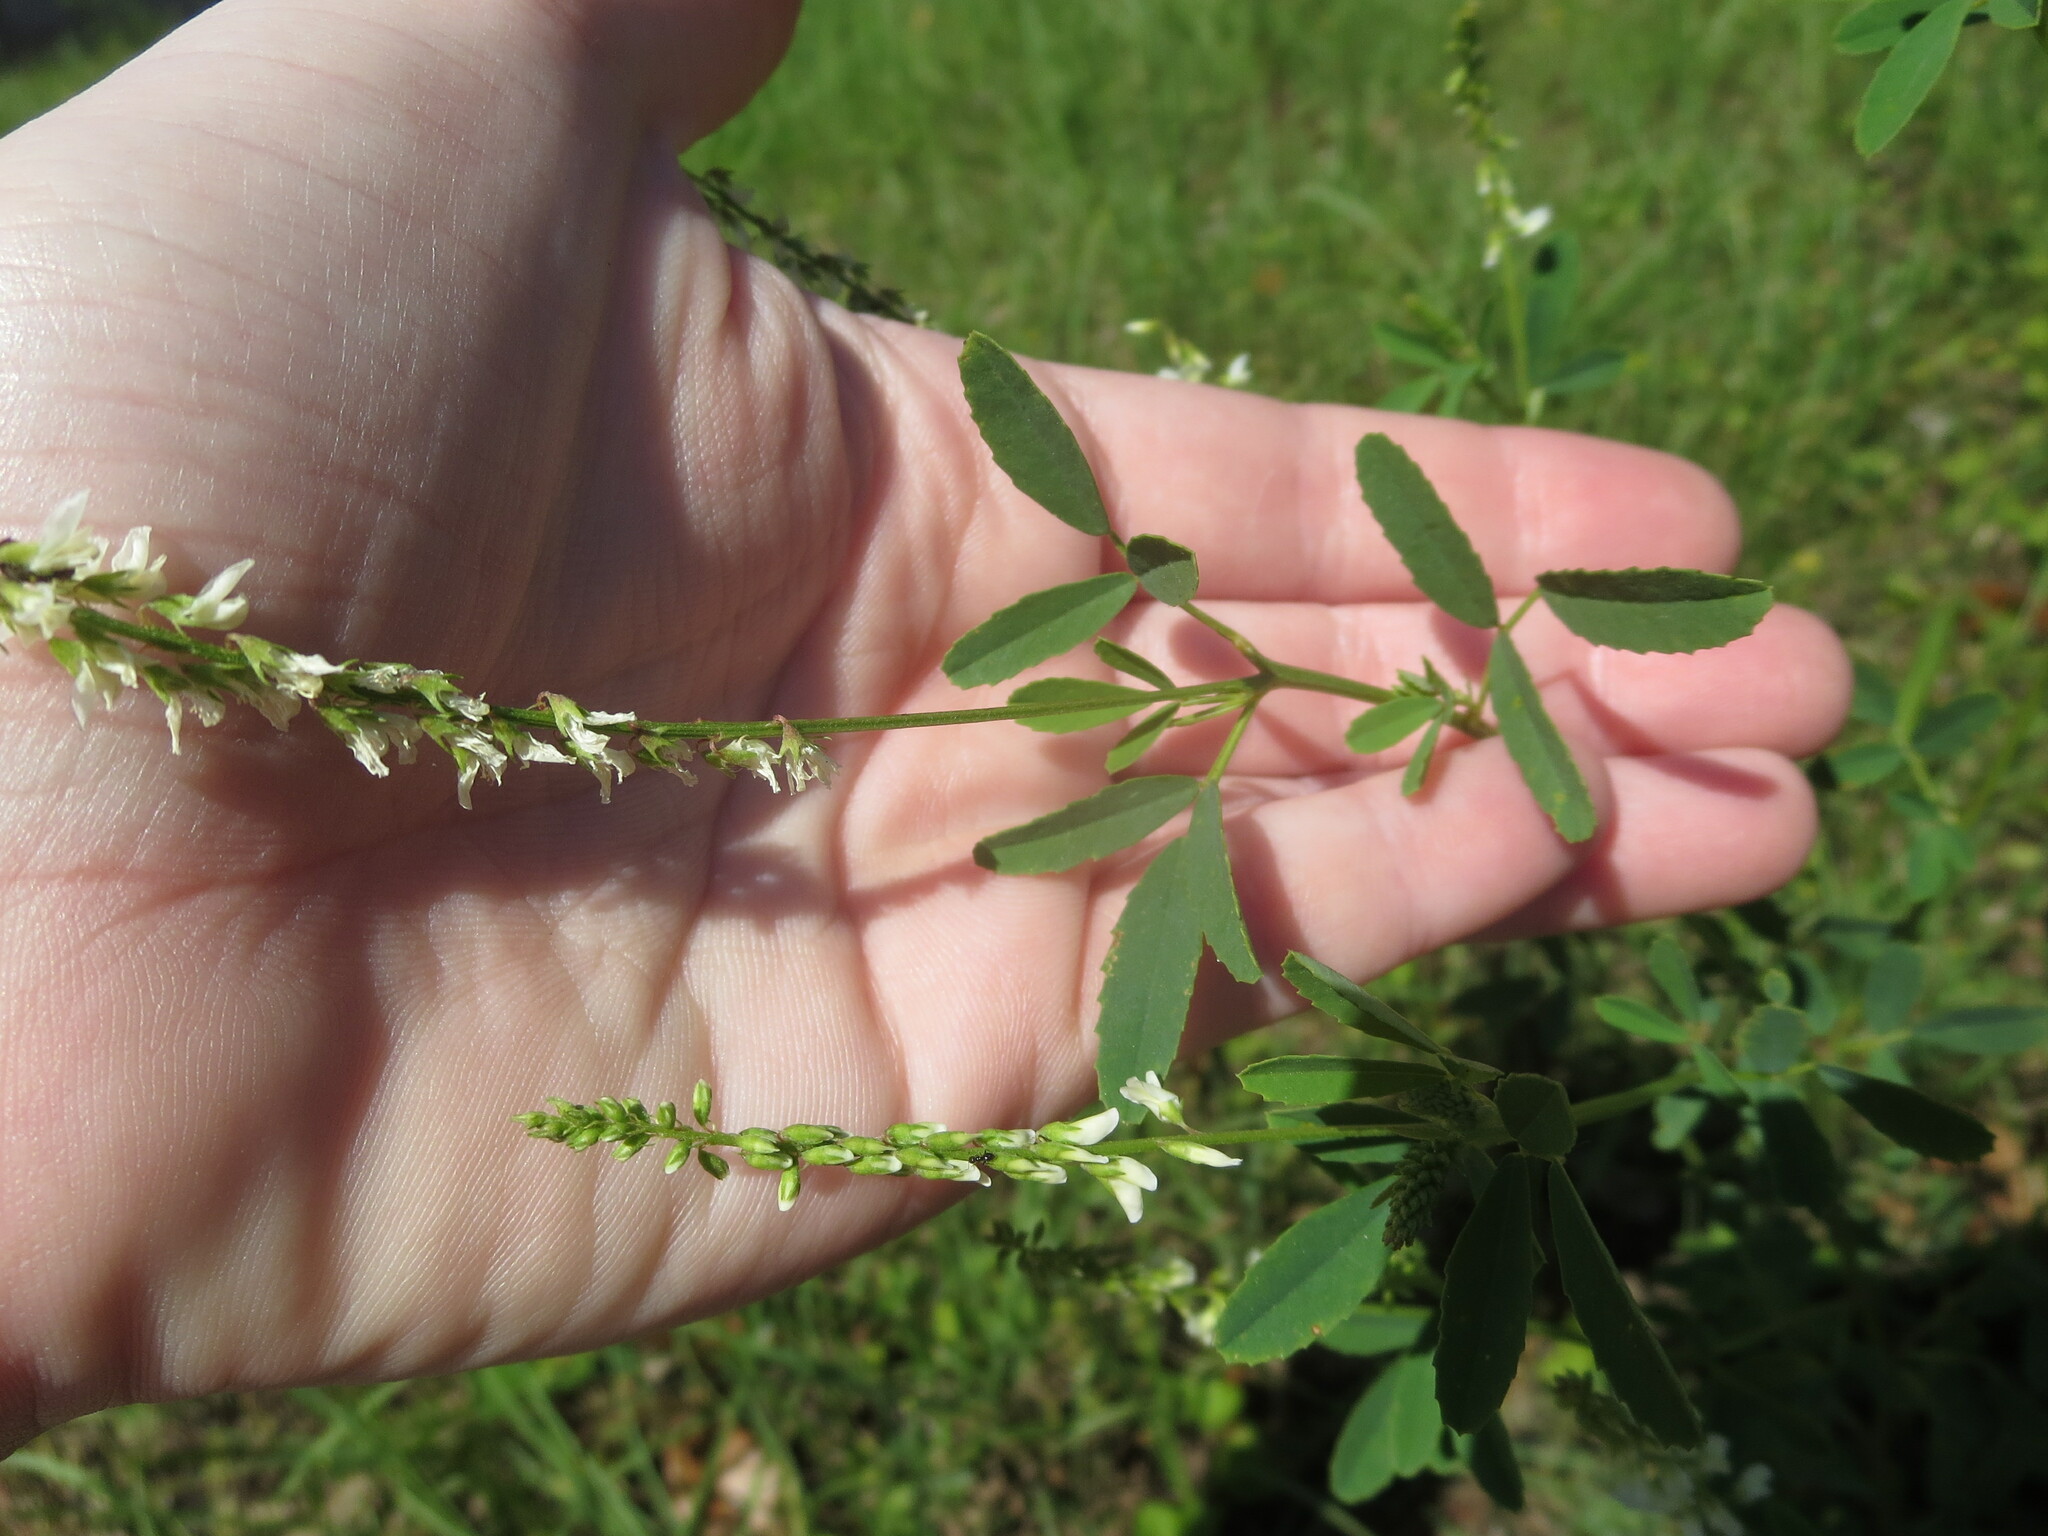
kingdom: Plantae
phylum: Tracheophyta
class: Magnoliopsida
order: Fabales
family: Fabaceae
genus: Melilotus
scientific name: Melilotus albus
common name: White melilot
